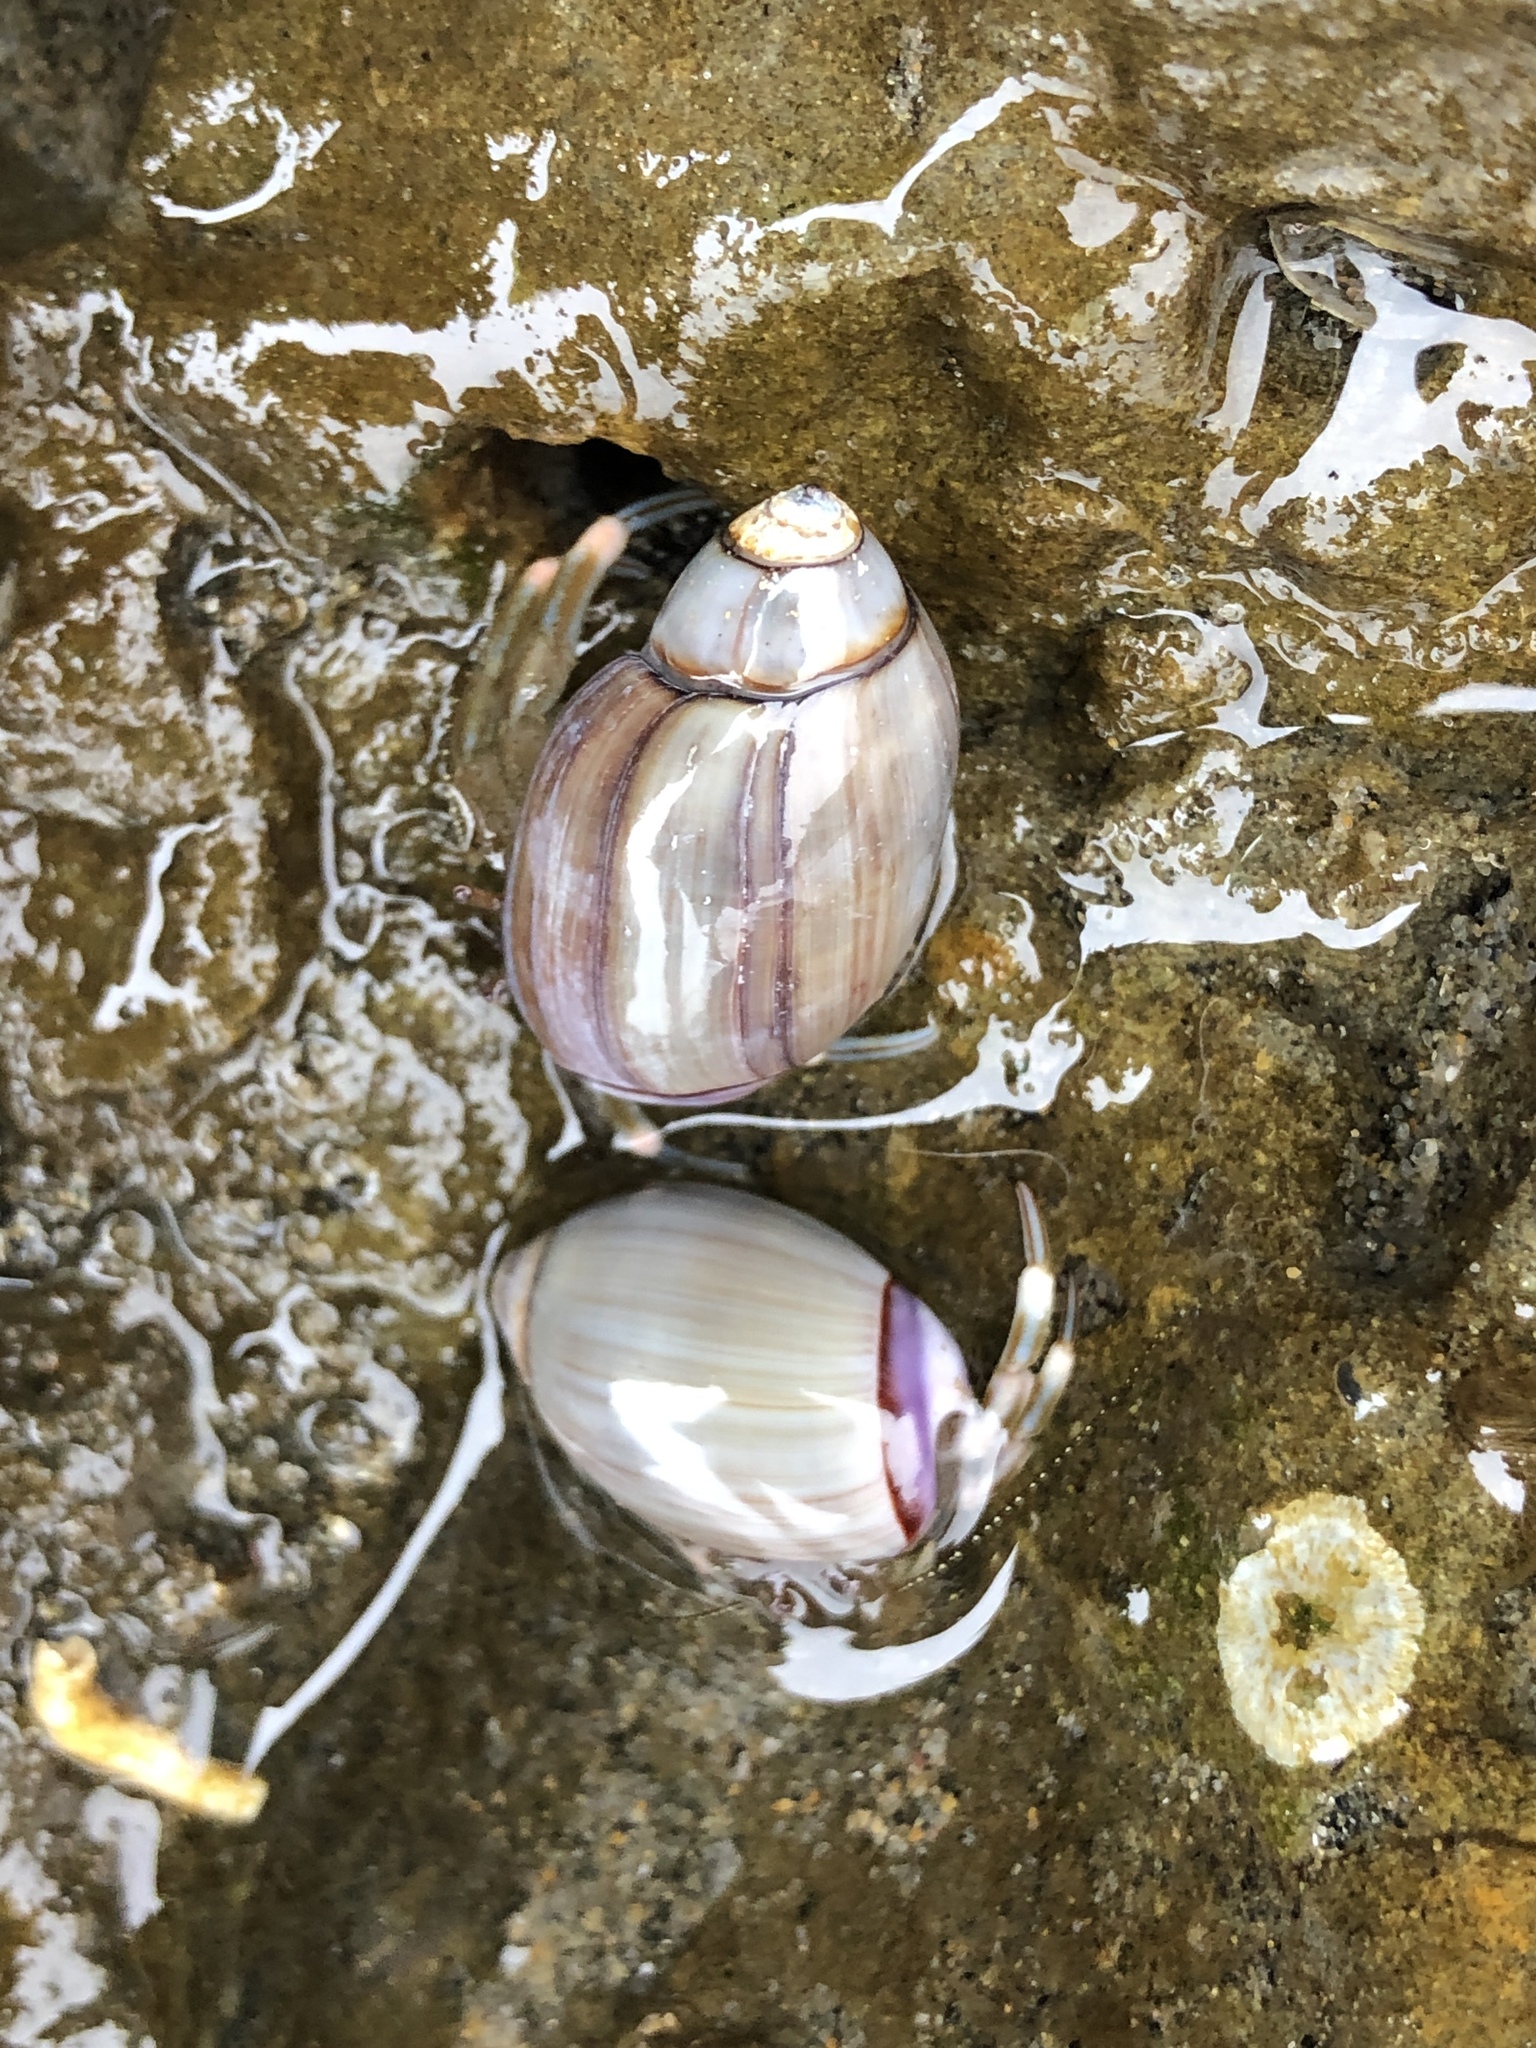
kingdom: Animalia
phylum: Mollusca
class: Gastropoda
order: Neogastropoda
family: Olividae
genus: Callianax
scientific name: Callianax biplicata
